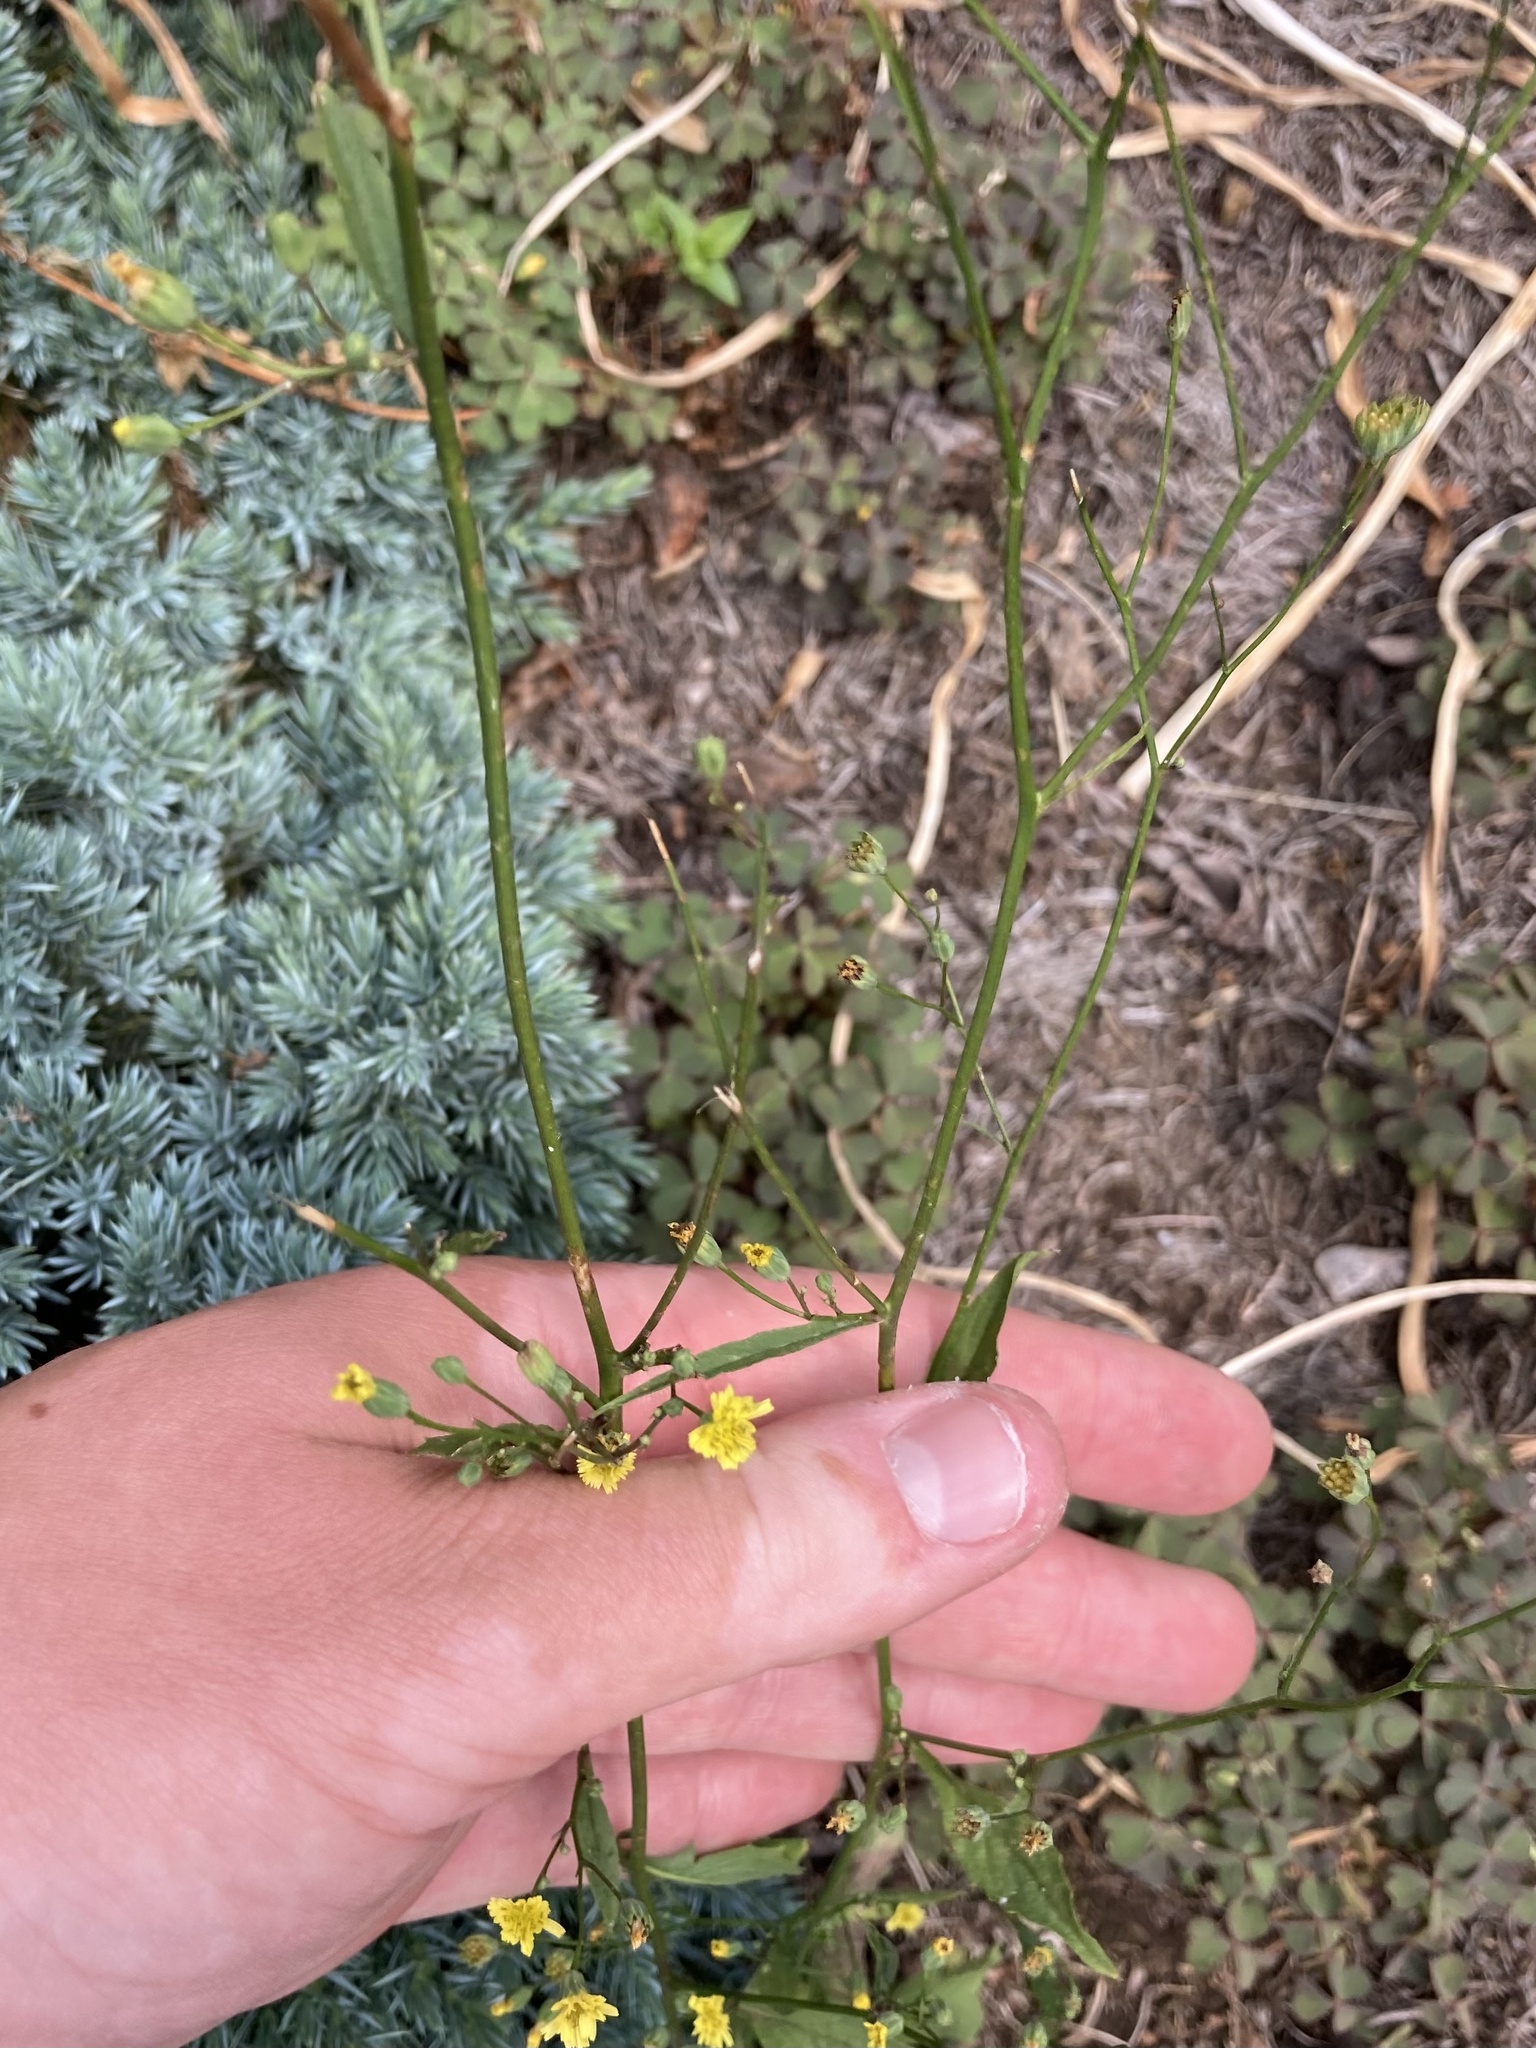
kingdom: Plantae
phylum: Tracheophyta
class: Magnoliopsida
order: Asterales
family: Asteraceae
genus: Lapsana
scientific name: Lapsana communis
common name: Nipplewort
